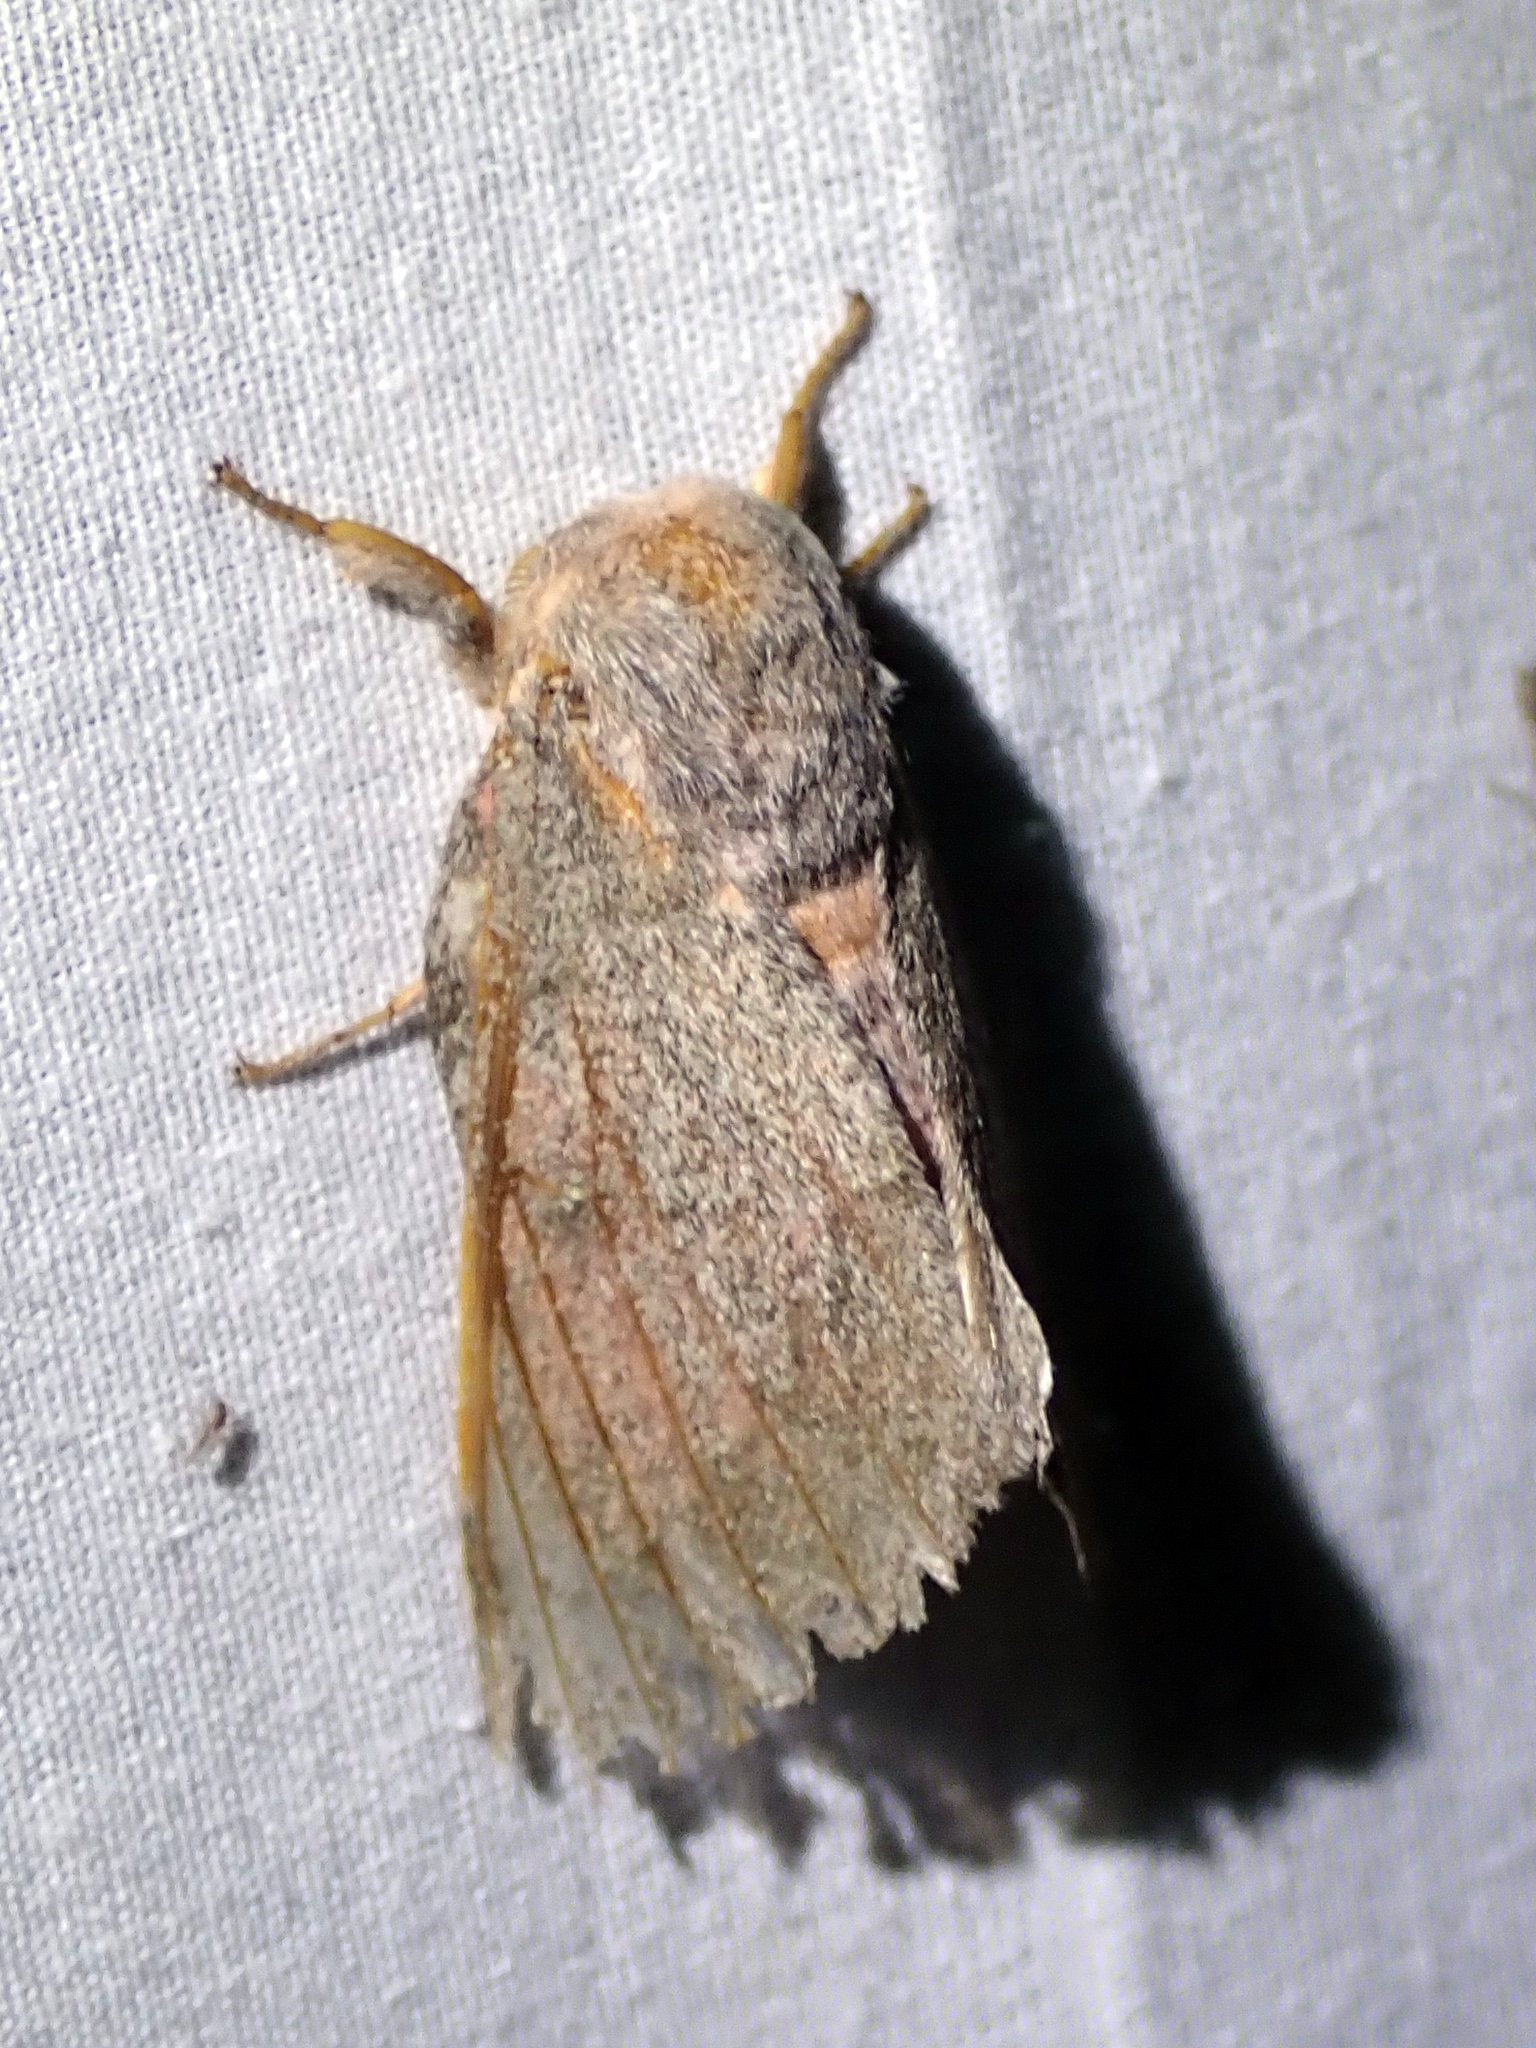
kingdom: Animalia
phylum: Arthropoda
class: Insecta
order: Lepidoptera
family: Saturniidae
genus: Syssphinx
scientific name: Syssphinx hubbardi
